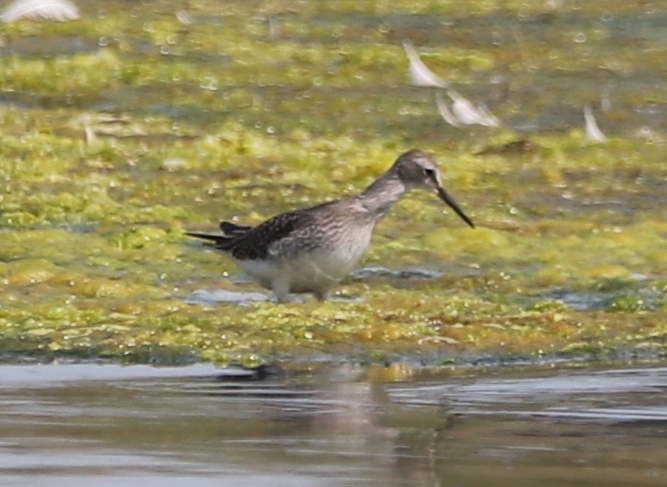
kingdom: Animalia
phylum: Chordata
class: Aves
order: Charadriiformes
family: Scolopacidae
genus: Tringa
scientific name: Tringa flavipes
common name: Lesser yellowlegs
